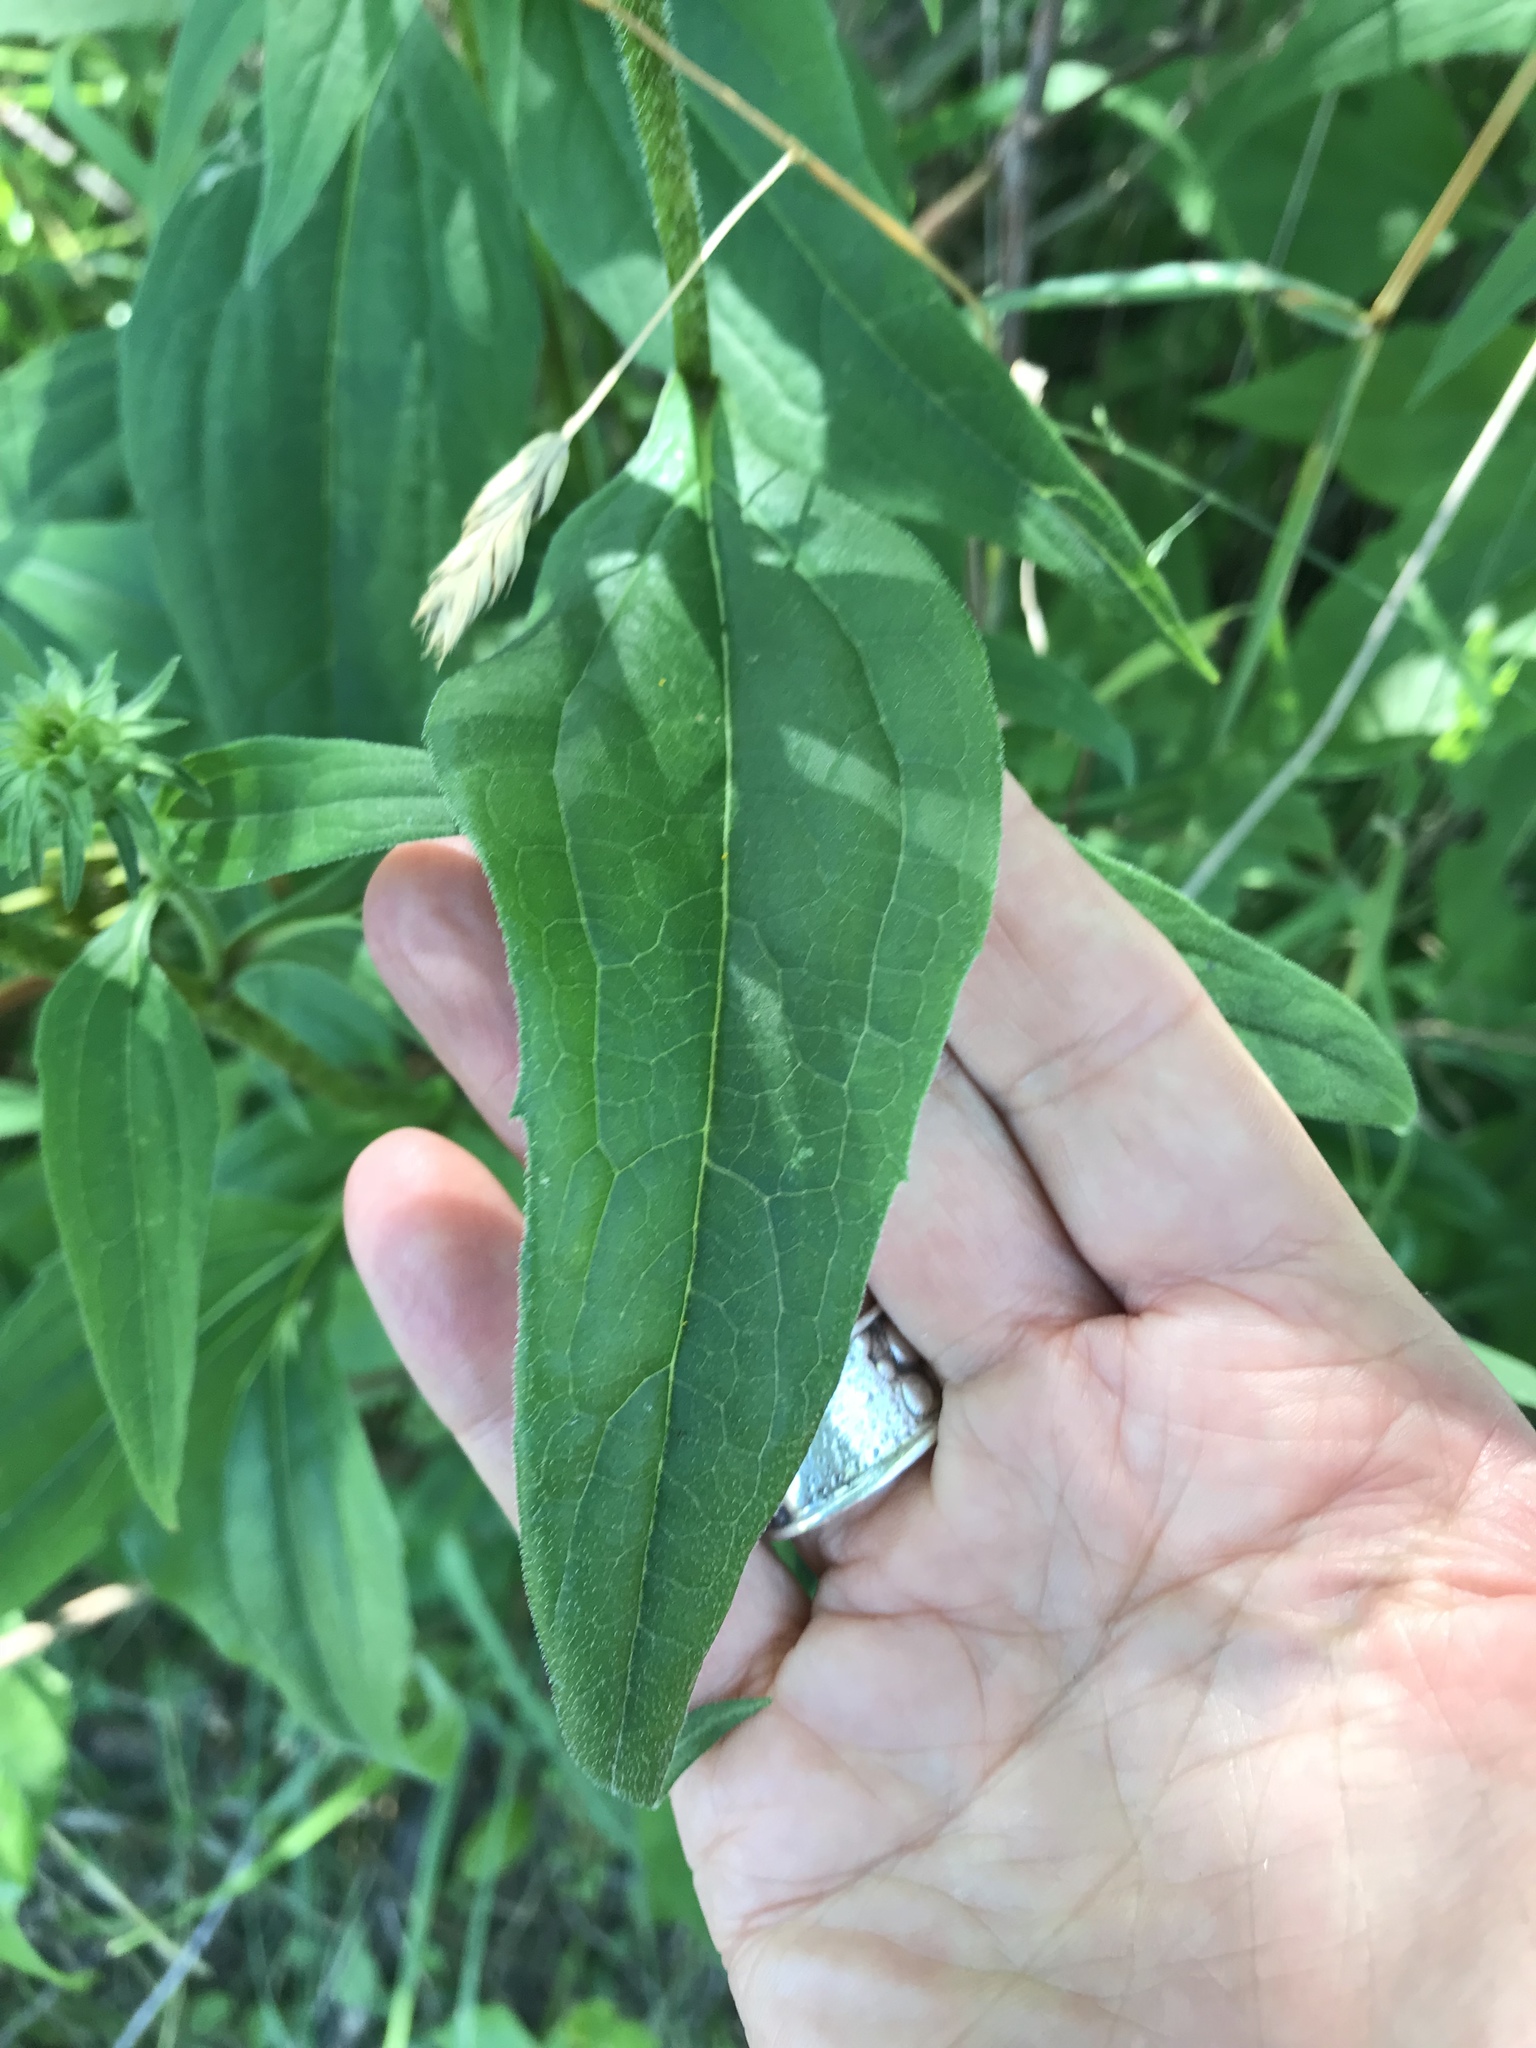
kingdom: Plantae
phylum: Tracheophyta
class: Magnoliopsida
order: Asterales
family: Asteraceae
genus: Echinacea
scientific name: Echinacea purpurea
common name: Broad-leaved purple coneflower
